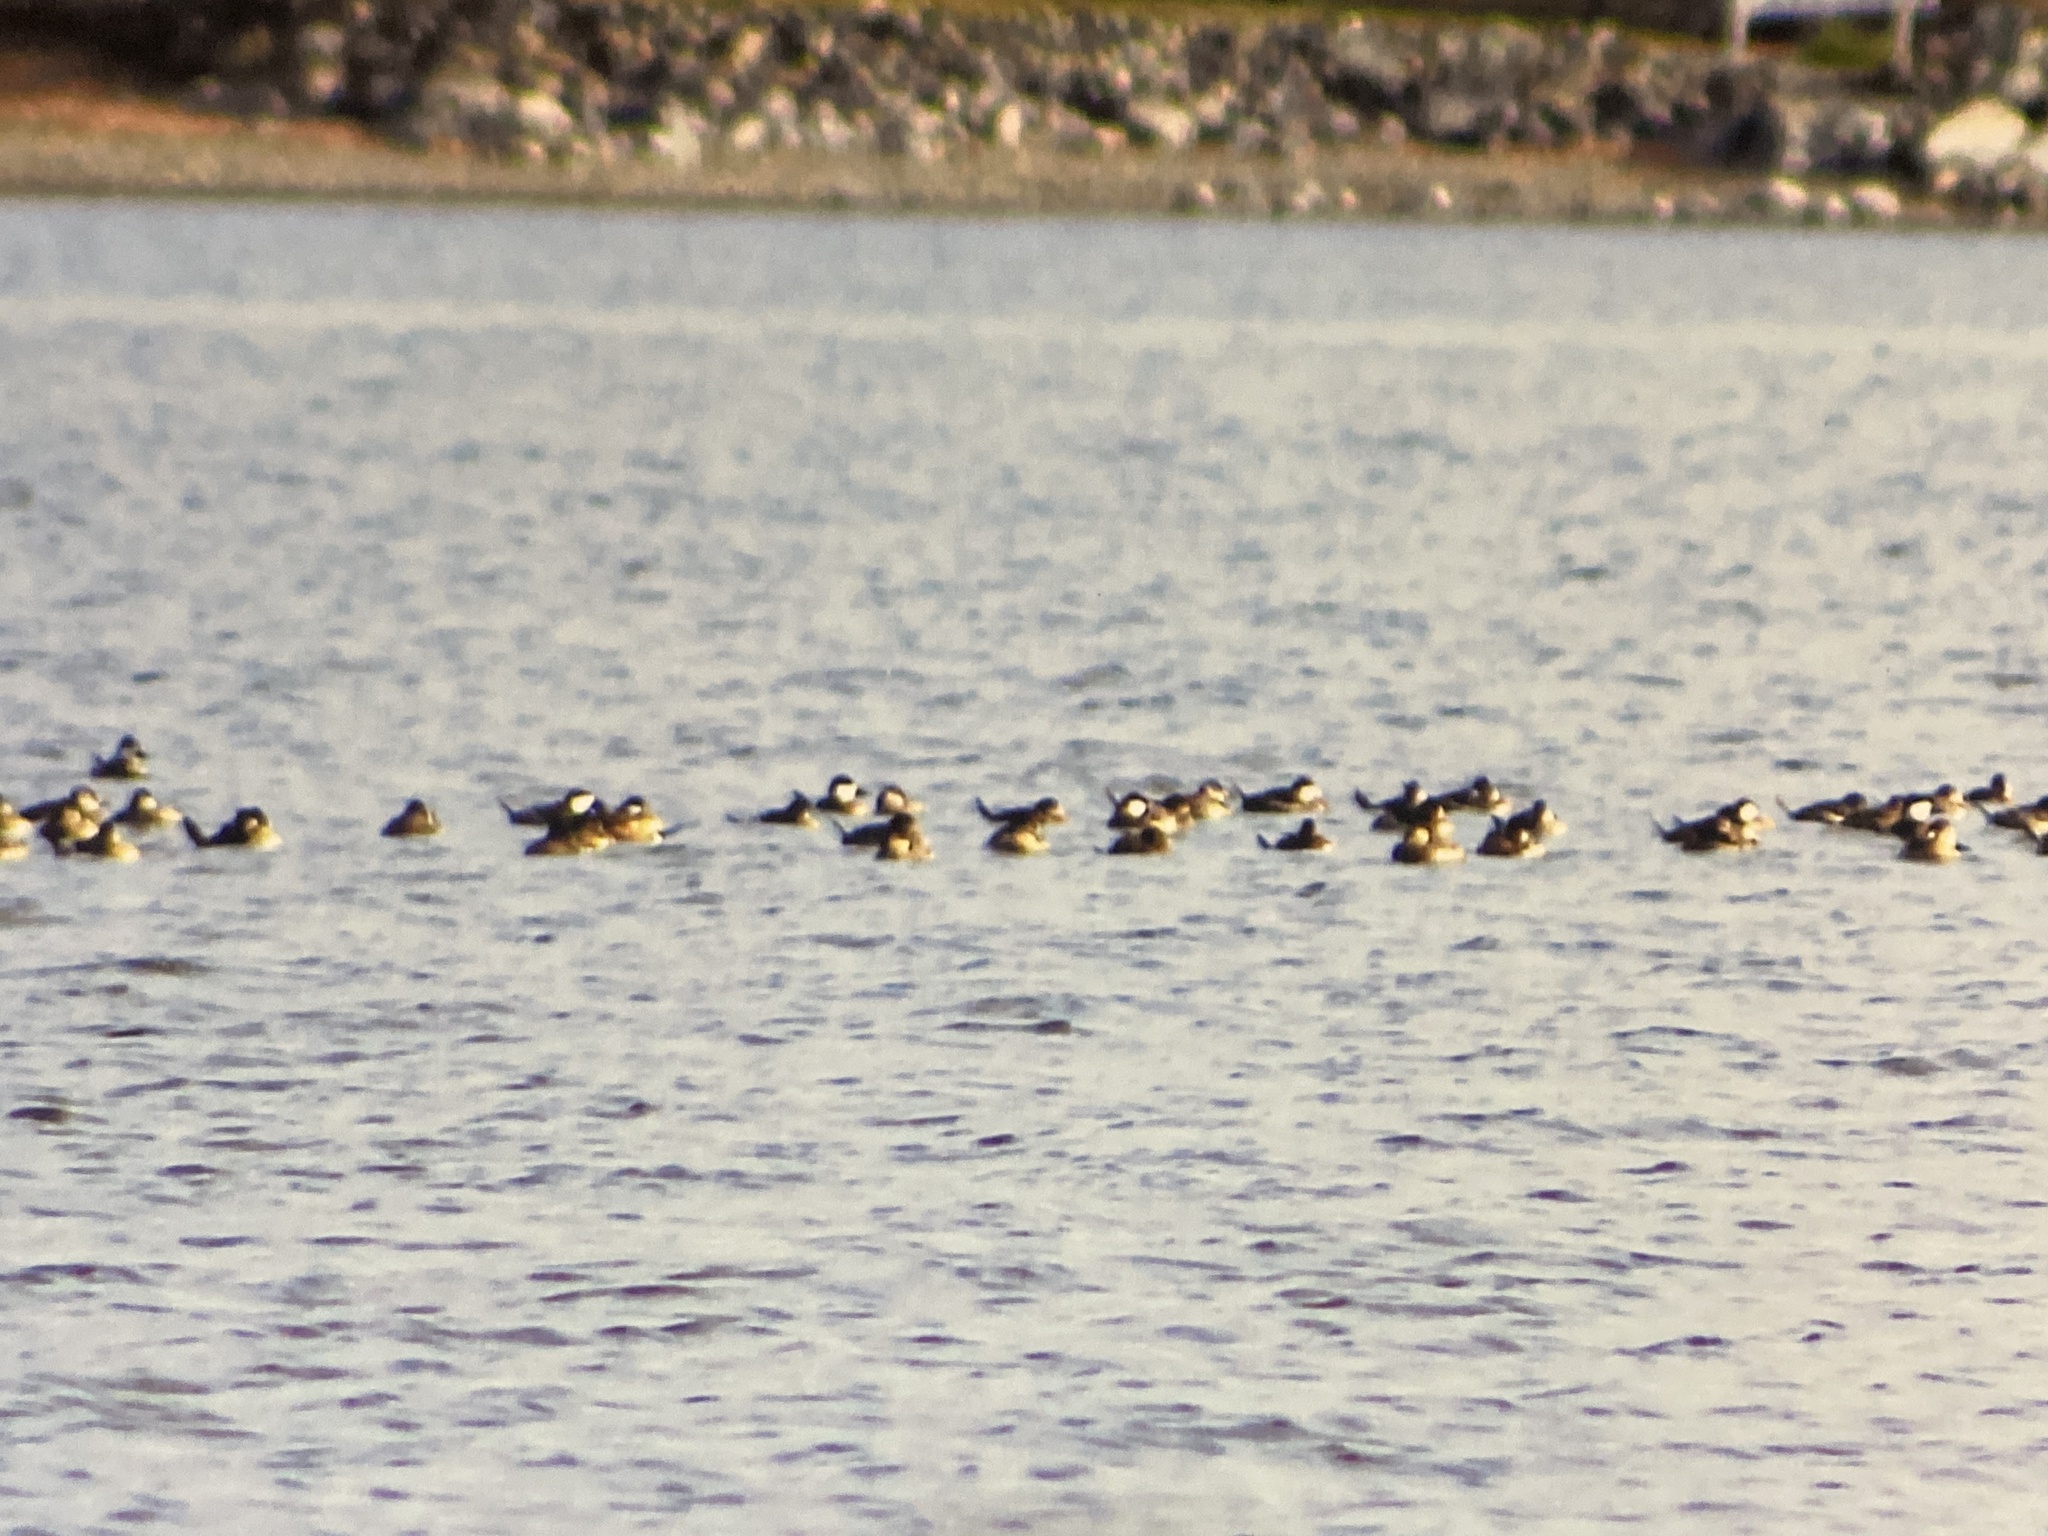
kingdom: Animalia
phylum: Chordata
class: Aves
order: Anseriformes
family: Anatidae
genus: Oxyura
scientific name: Oxyura jamaicensis
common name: Ruddy duck
